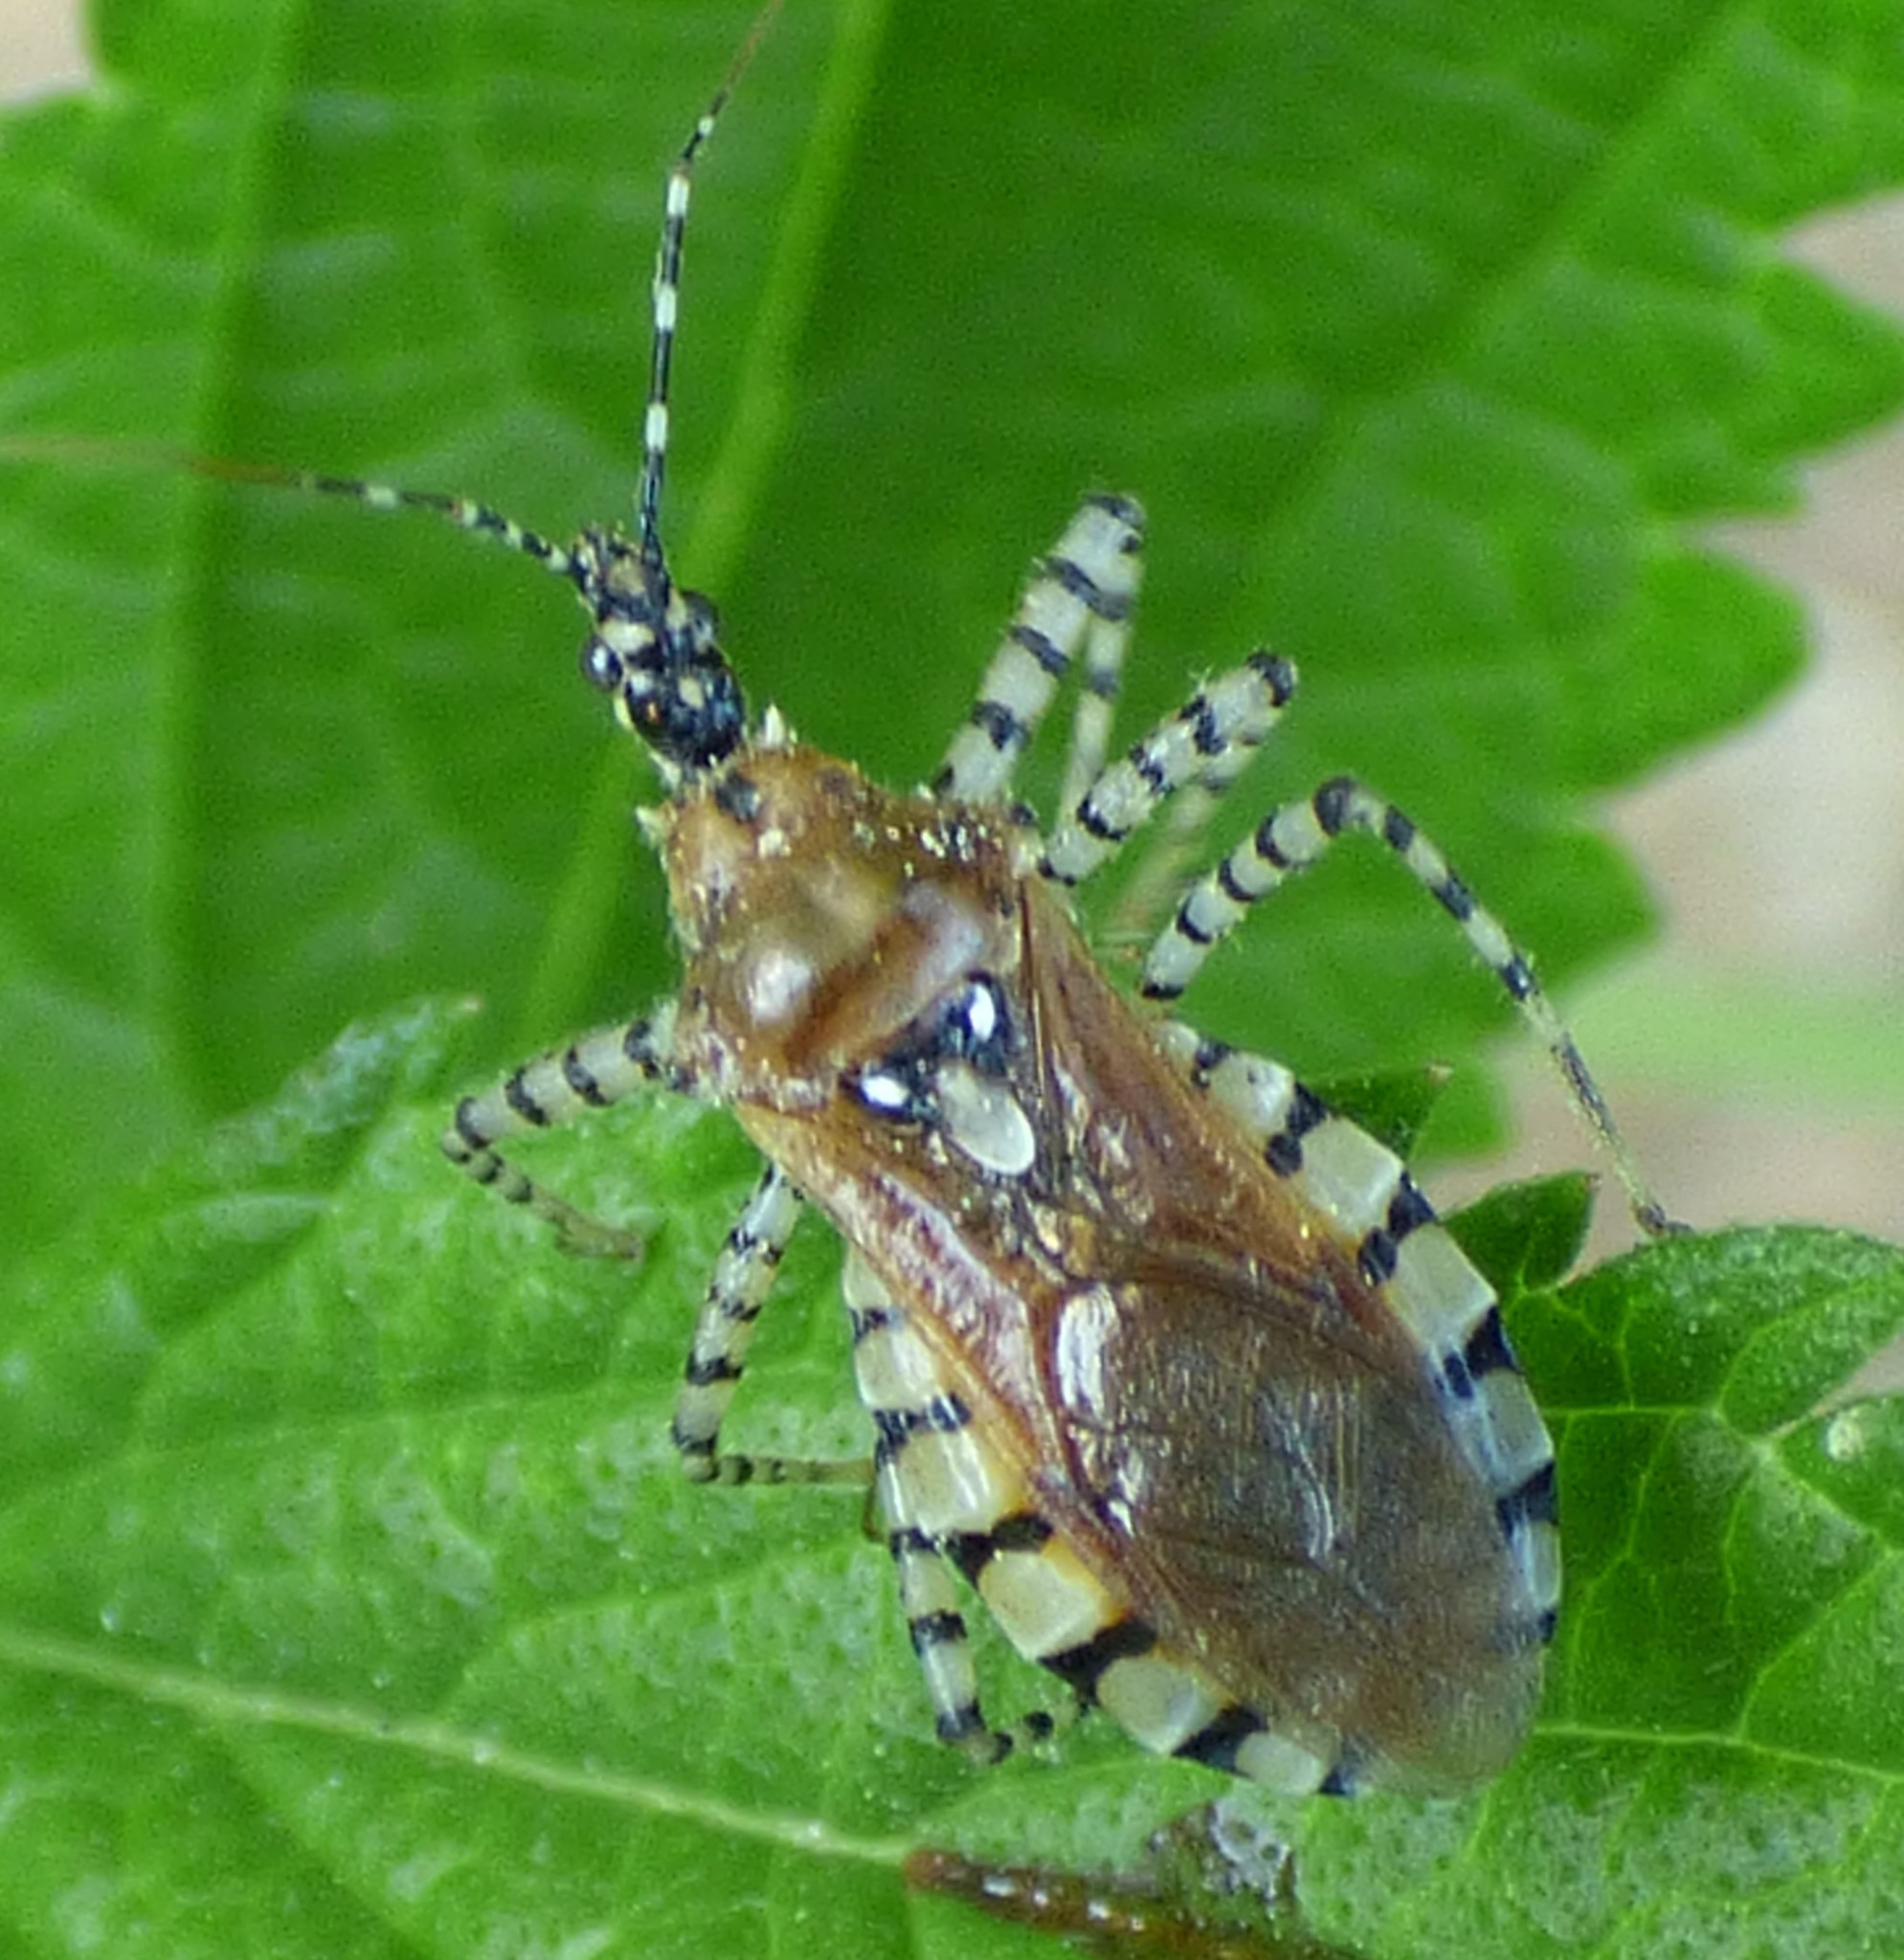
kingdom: Animalia
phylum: Arthropoda
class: Insecta
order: Hemiptera
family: Reduviidae
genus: Pselliopus
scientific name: Pselliopus cinctus
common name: Ringed assassin bug
